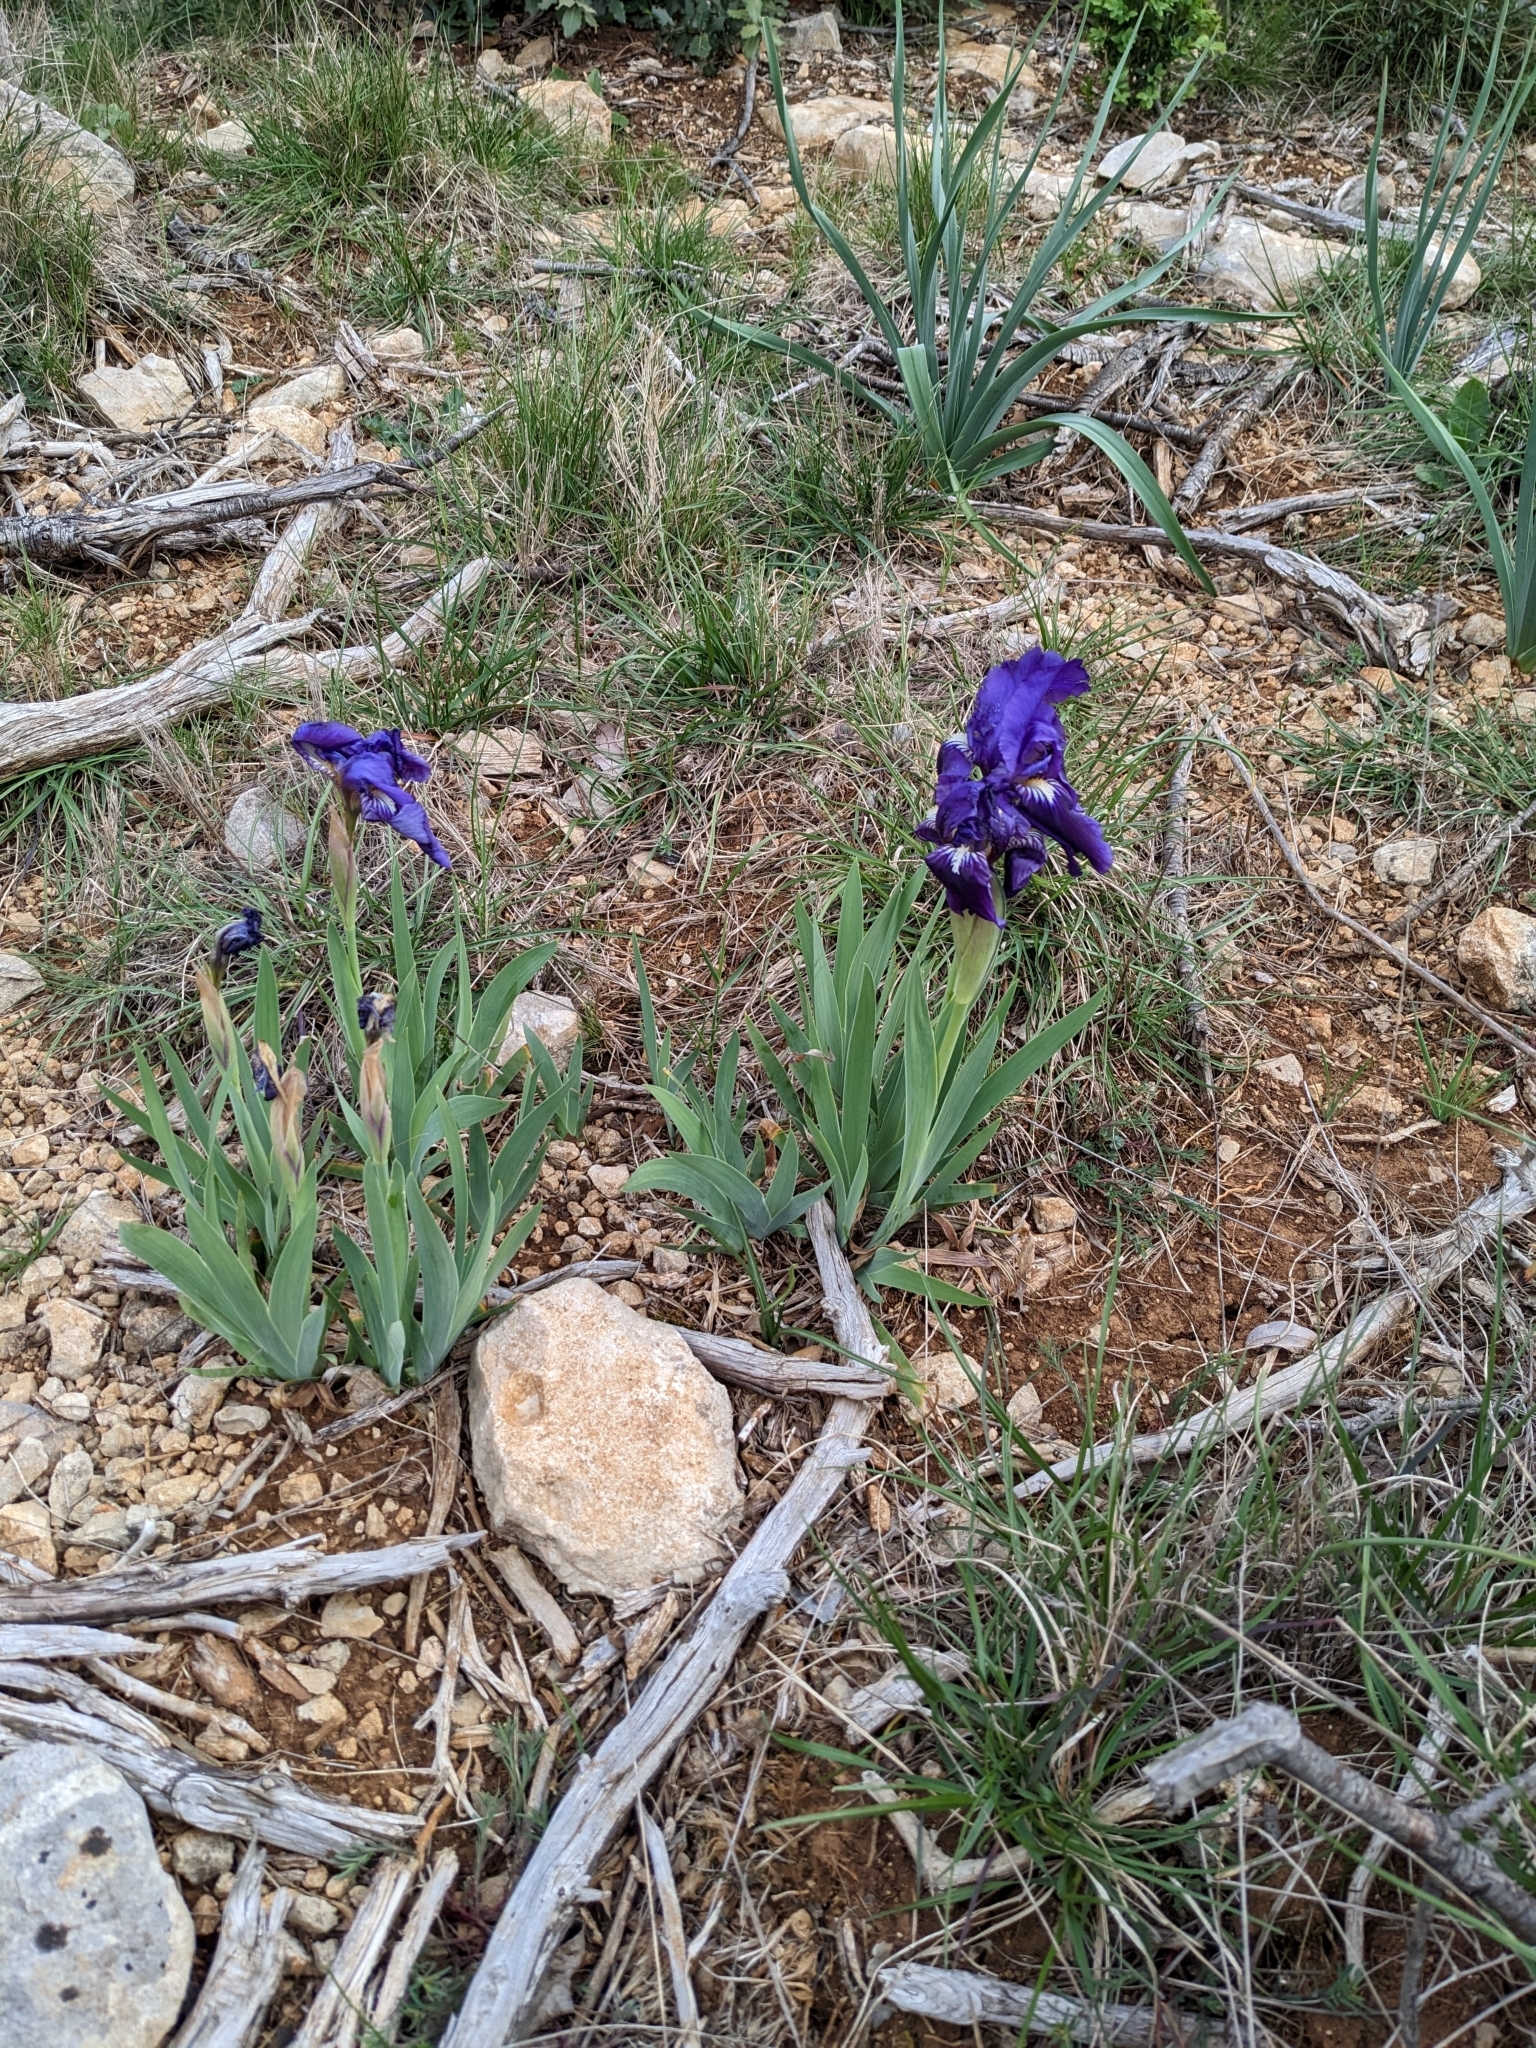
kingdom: Plantae
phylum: Tracheophyta
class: Liliopsida
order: Asparagales
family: Iridaceae
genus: Iris
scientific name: Iris lutescens
